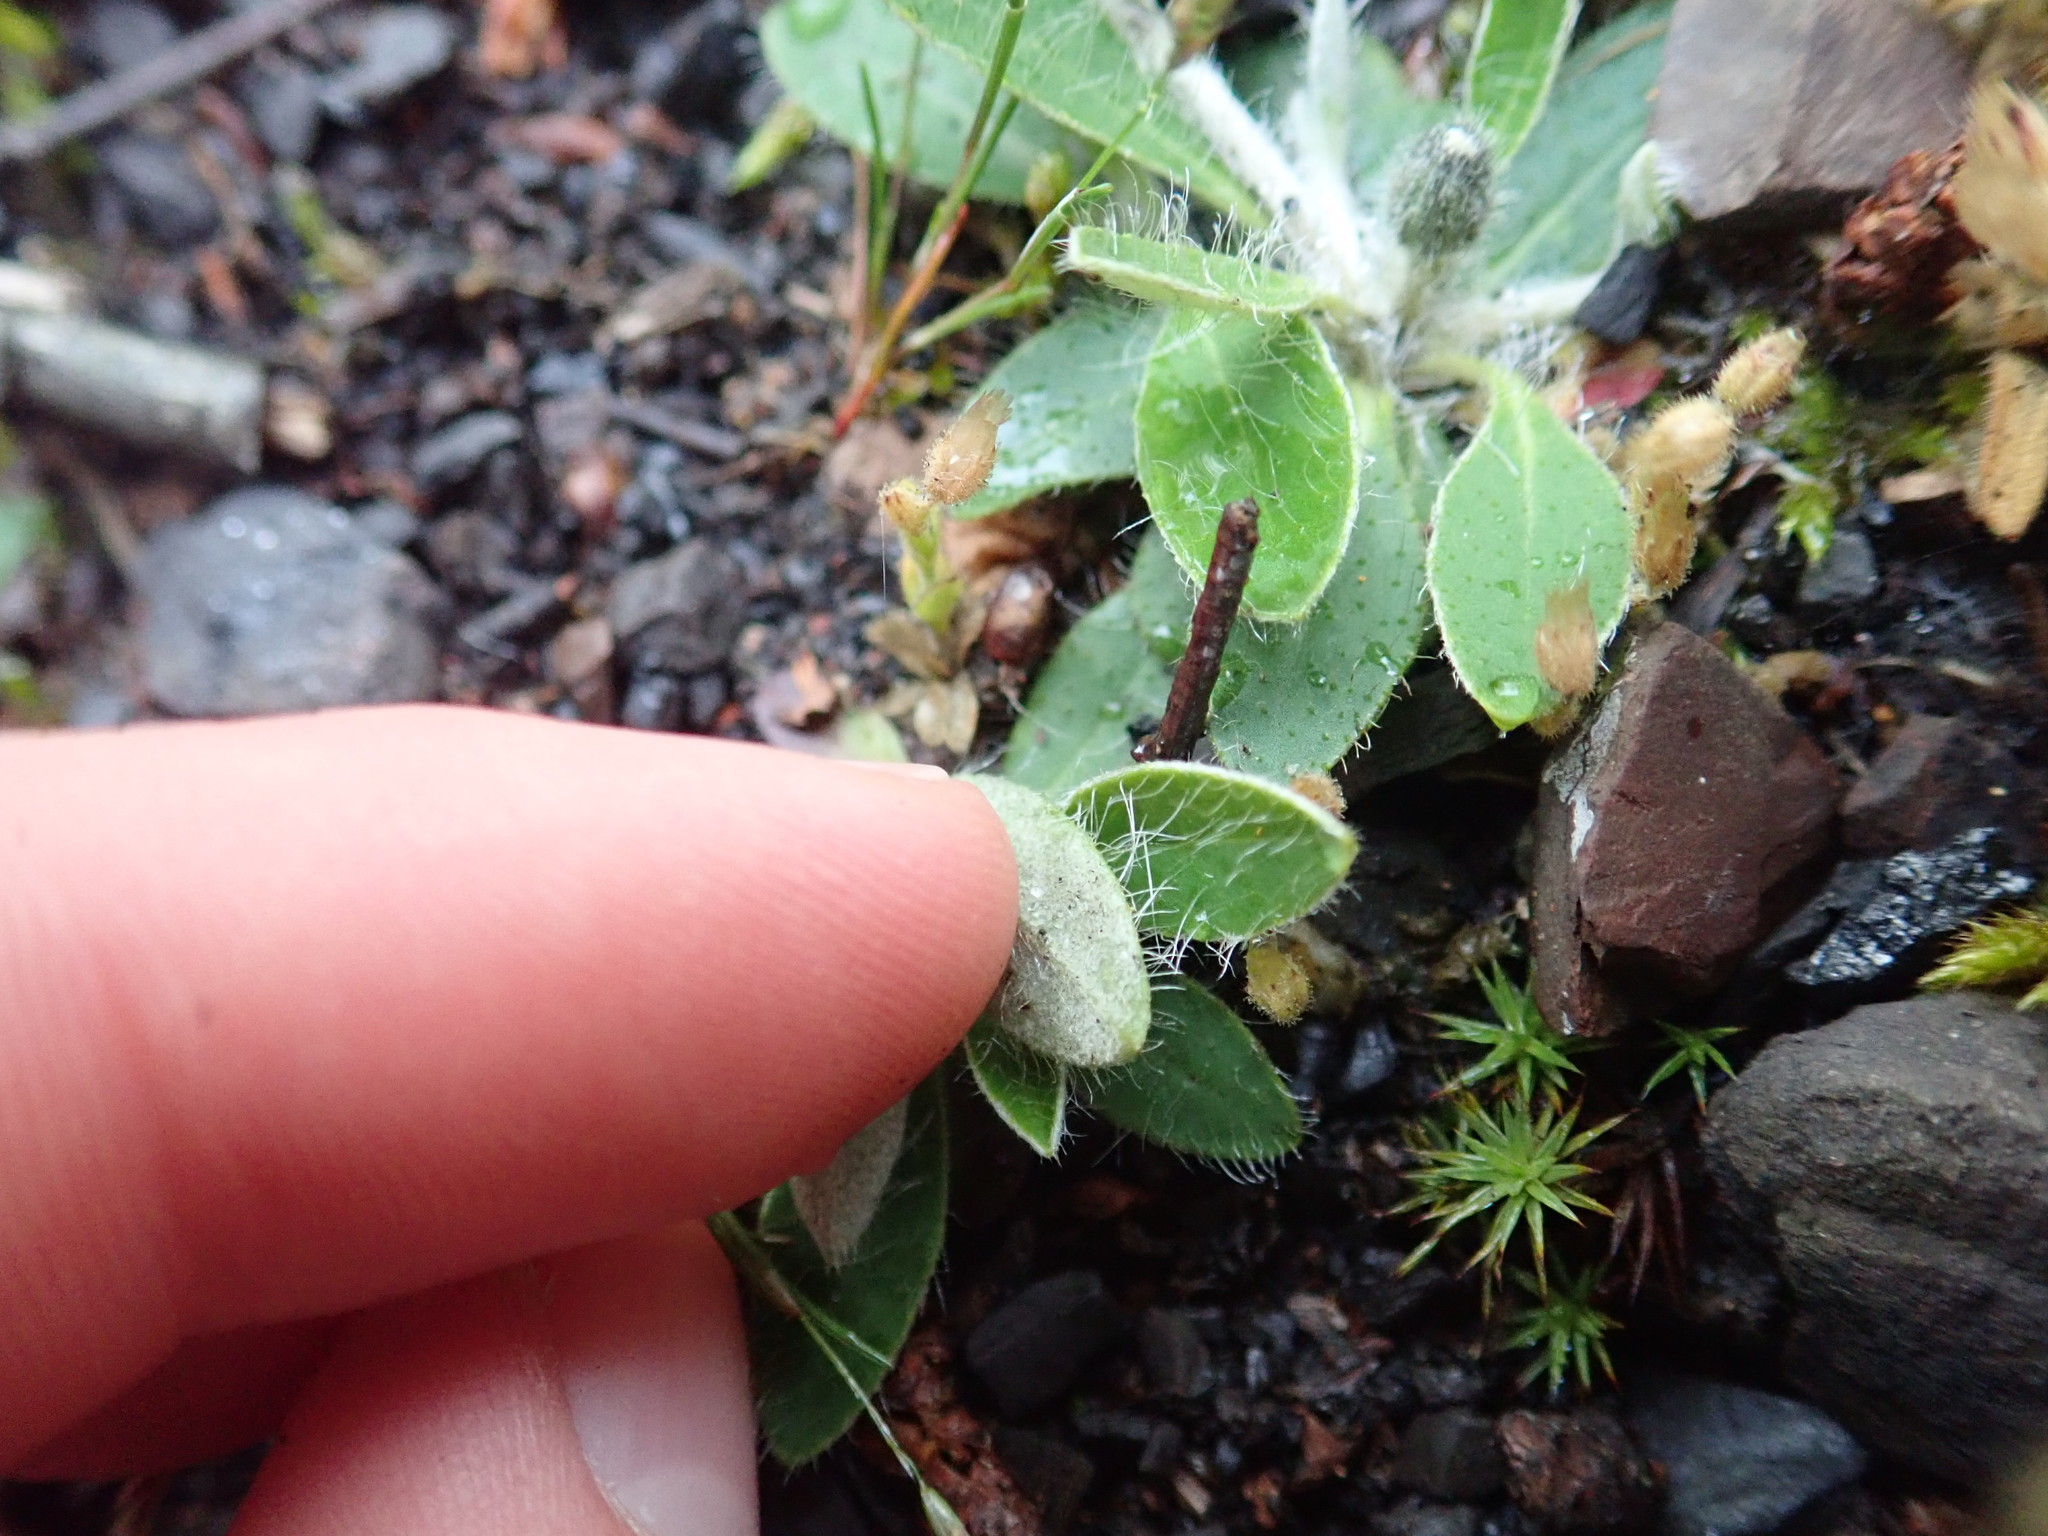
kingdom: Plantae
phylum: Tracheophyta
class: Magnoliopsida
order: Asterales
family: Asteraceae
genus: Pilosella
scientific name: Pilosella officinarum
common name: Mouse-ear hawkweed
